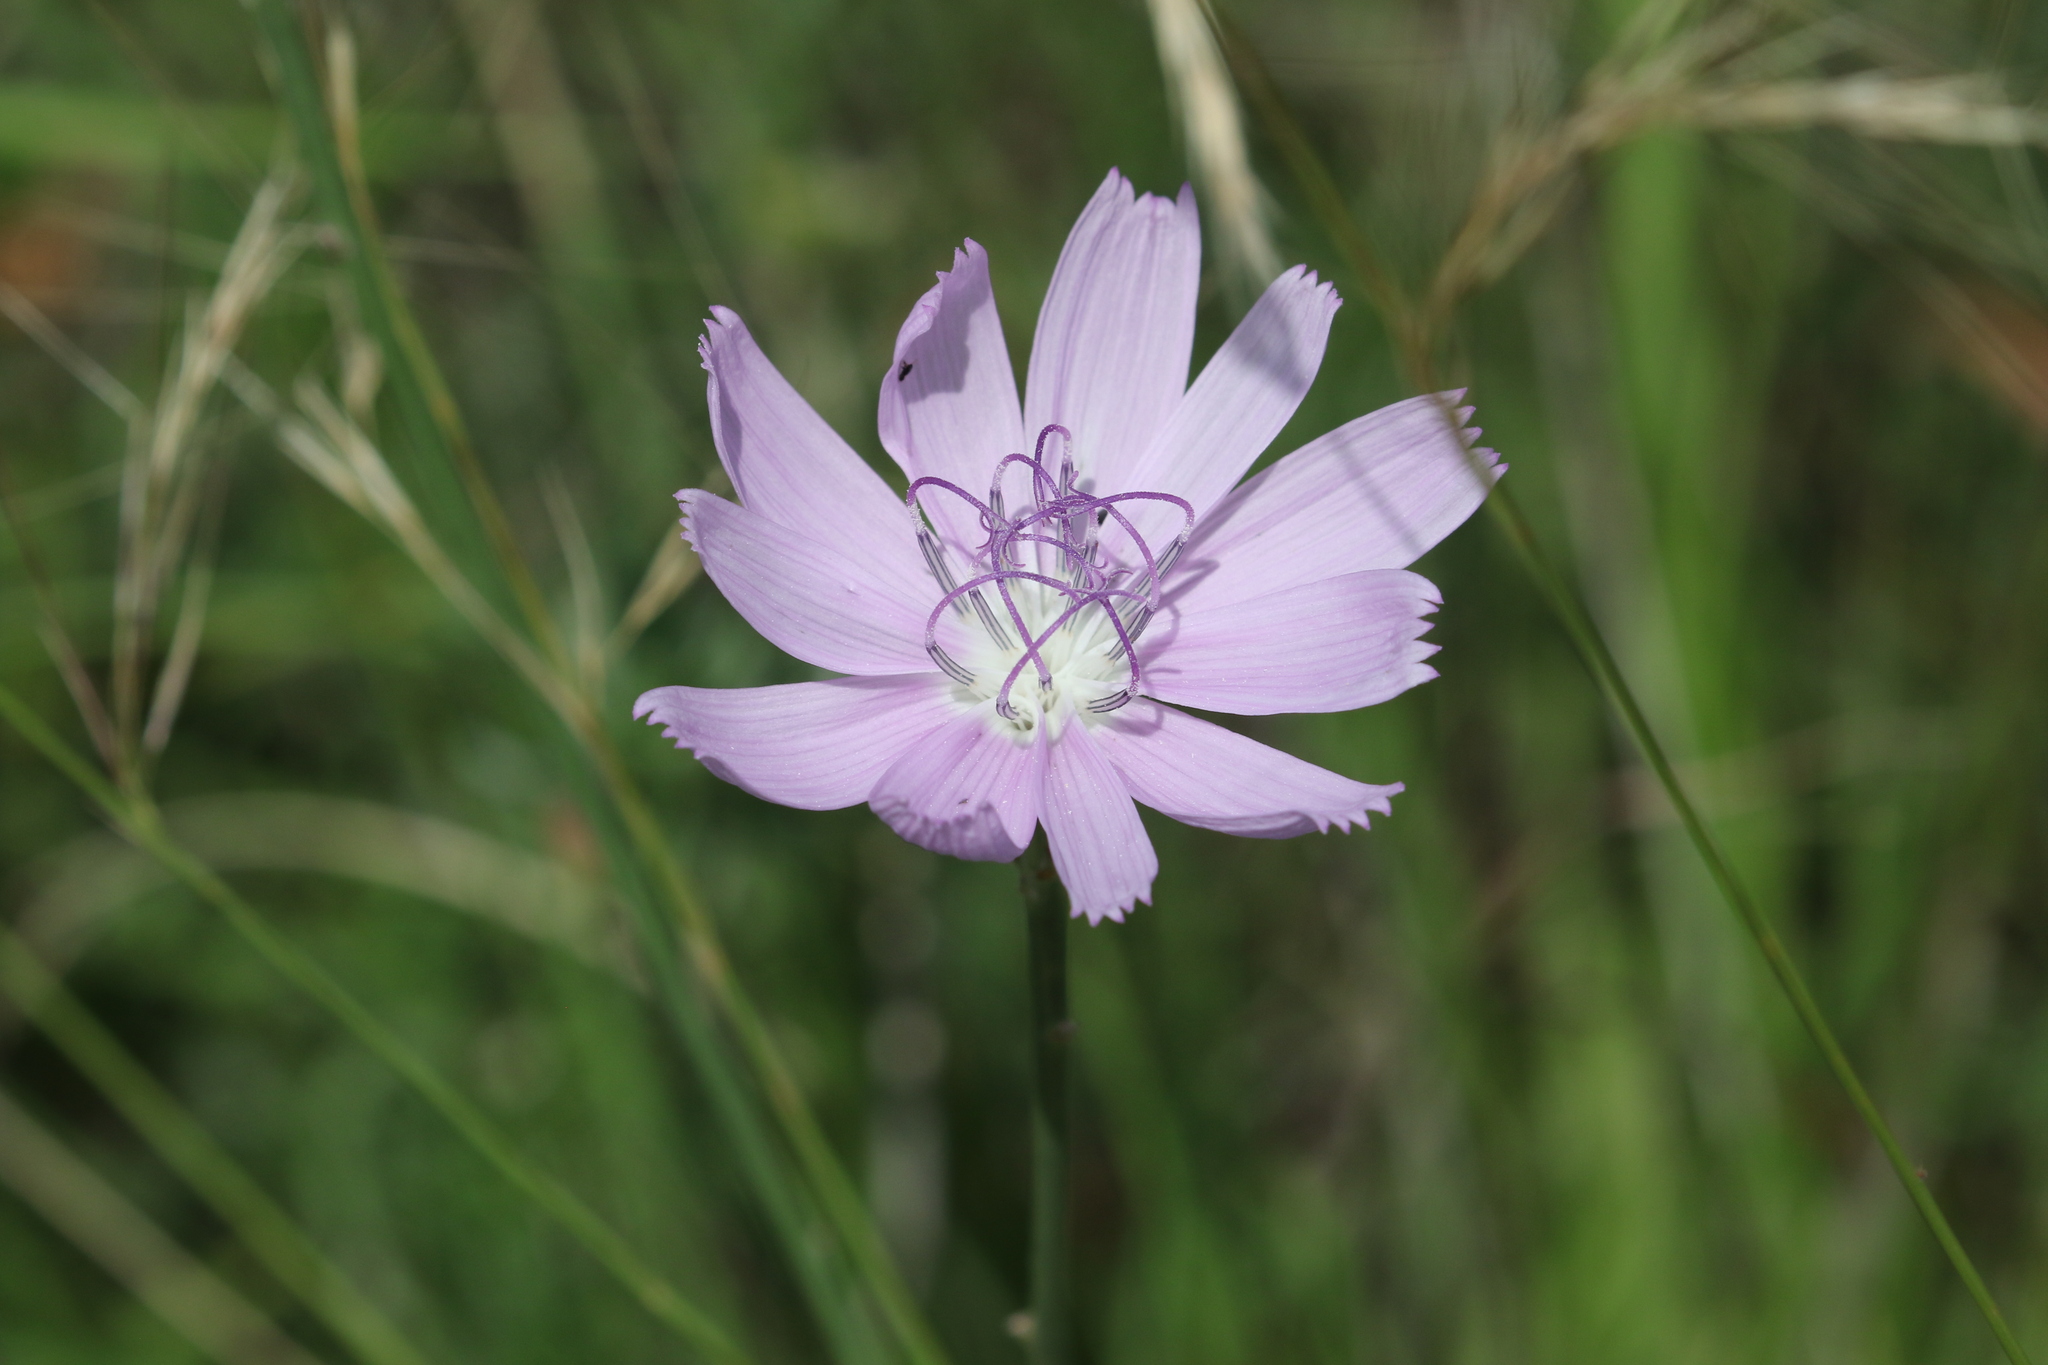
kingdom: Plantae
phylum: Tracheophyta
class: Magnoliopsida
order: Asterales
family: Asteraceae
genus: Lygodesmia
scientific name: Lygodesmia texana
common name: Texas skeleton-plant
